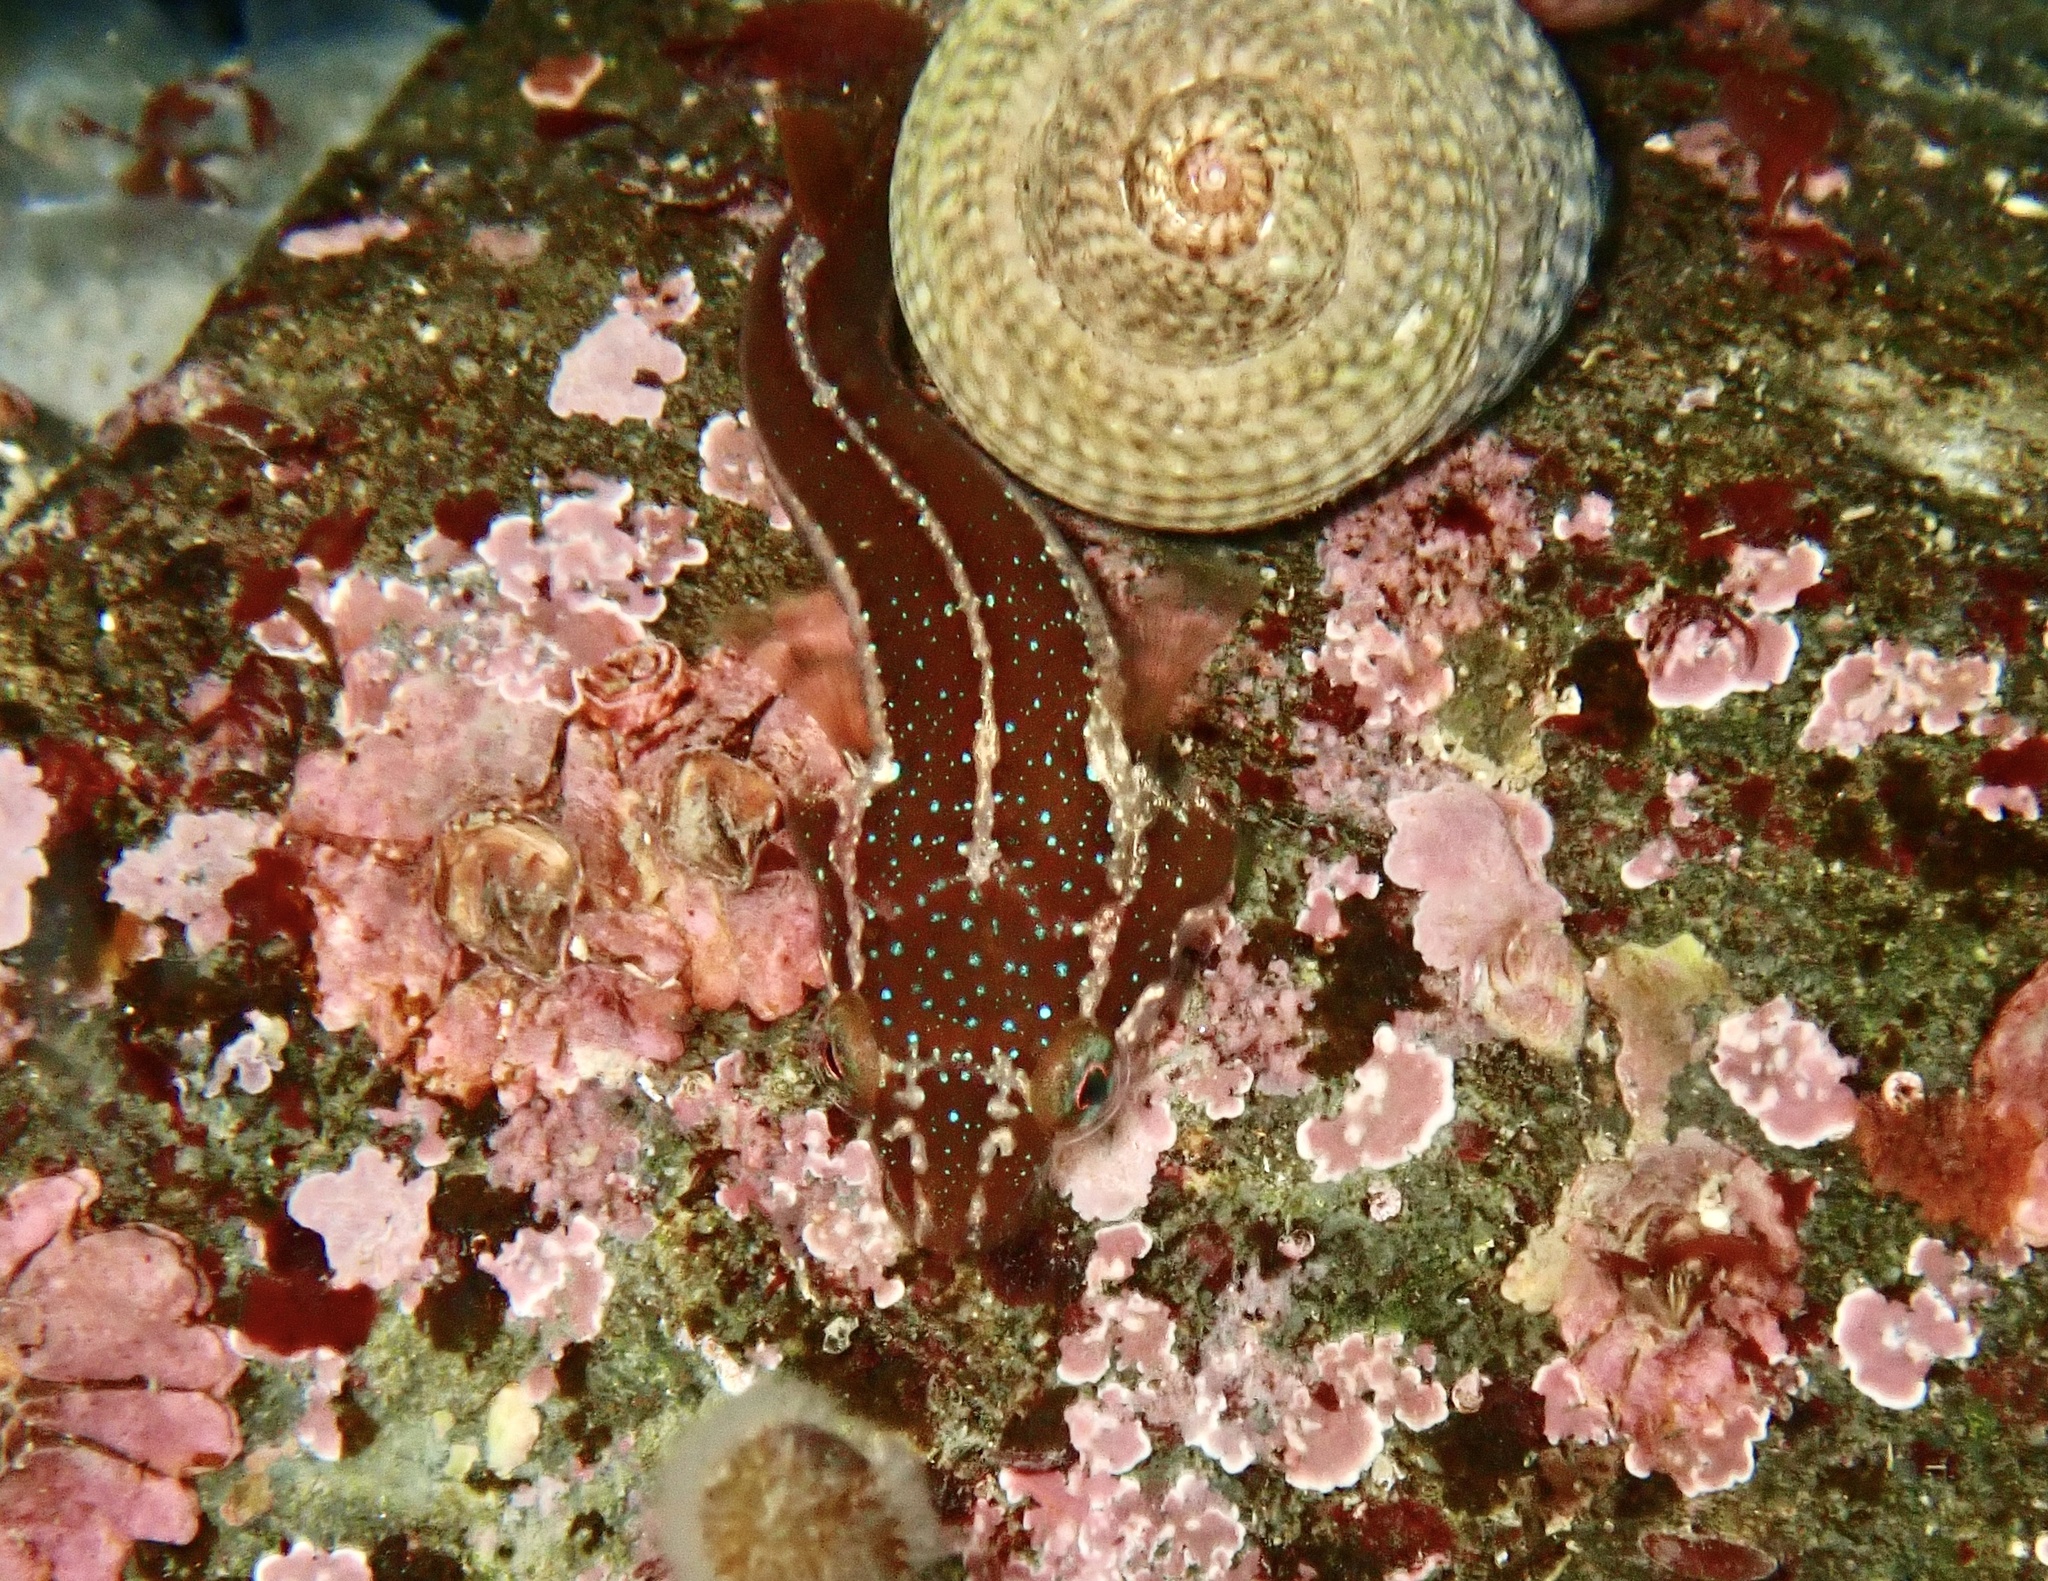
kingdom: Animalia
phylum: Chordata
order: Gobiesociformes
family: Gobiesocidae
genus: Apletodon
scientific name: Apletodon dentatus
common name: Small-headed clingfish
